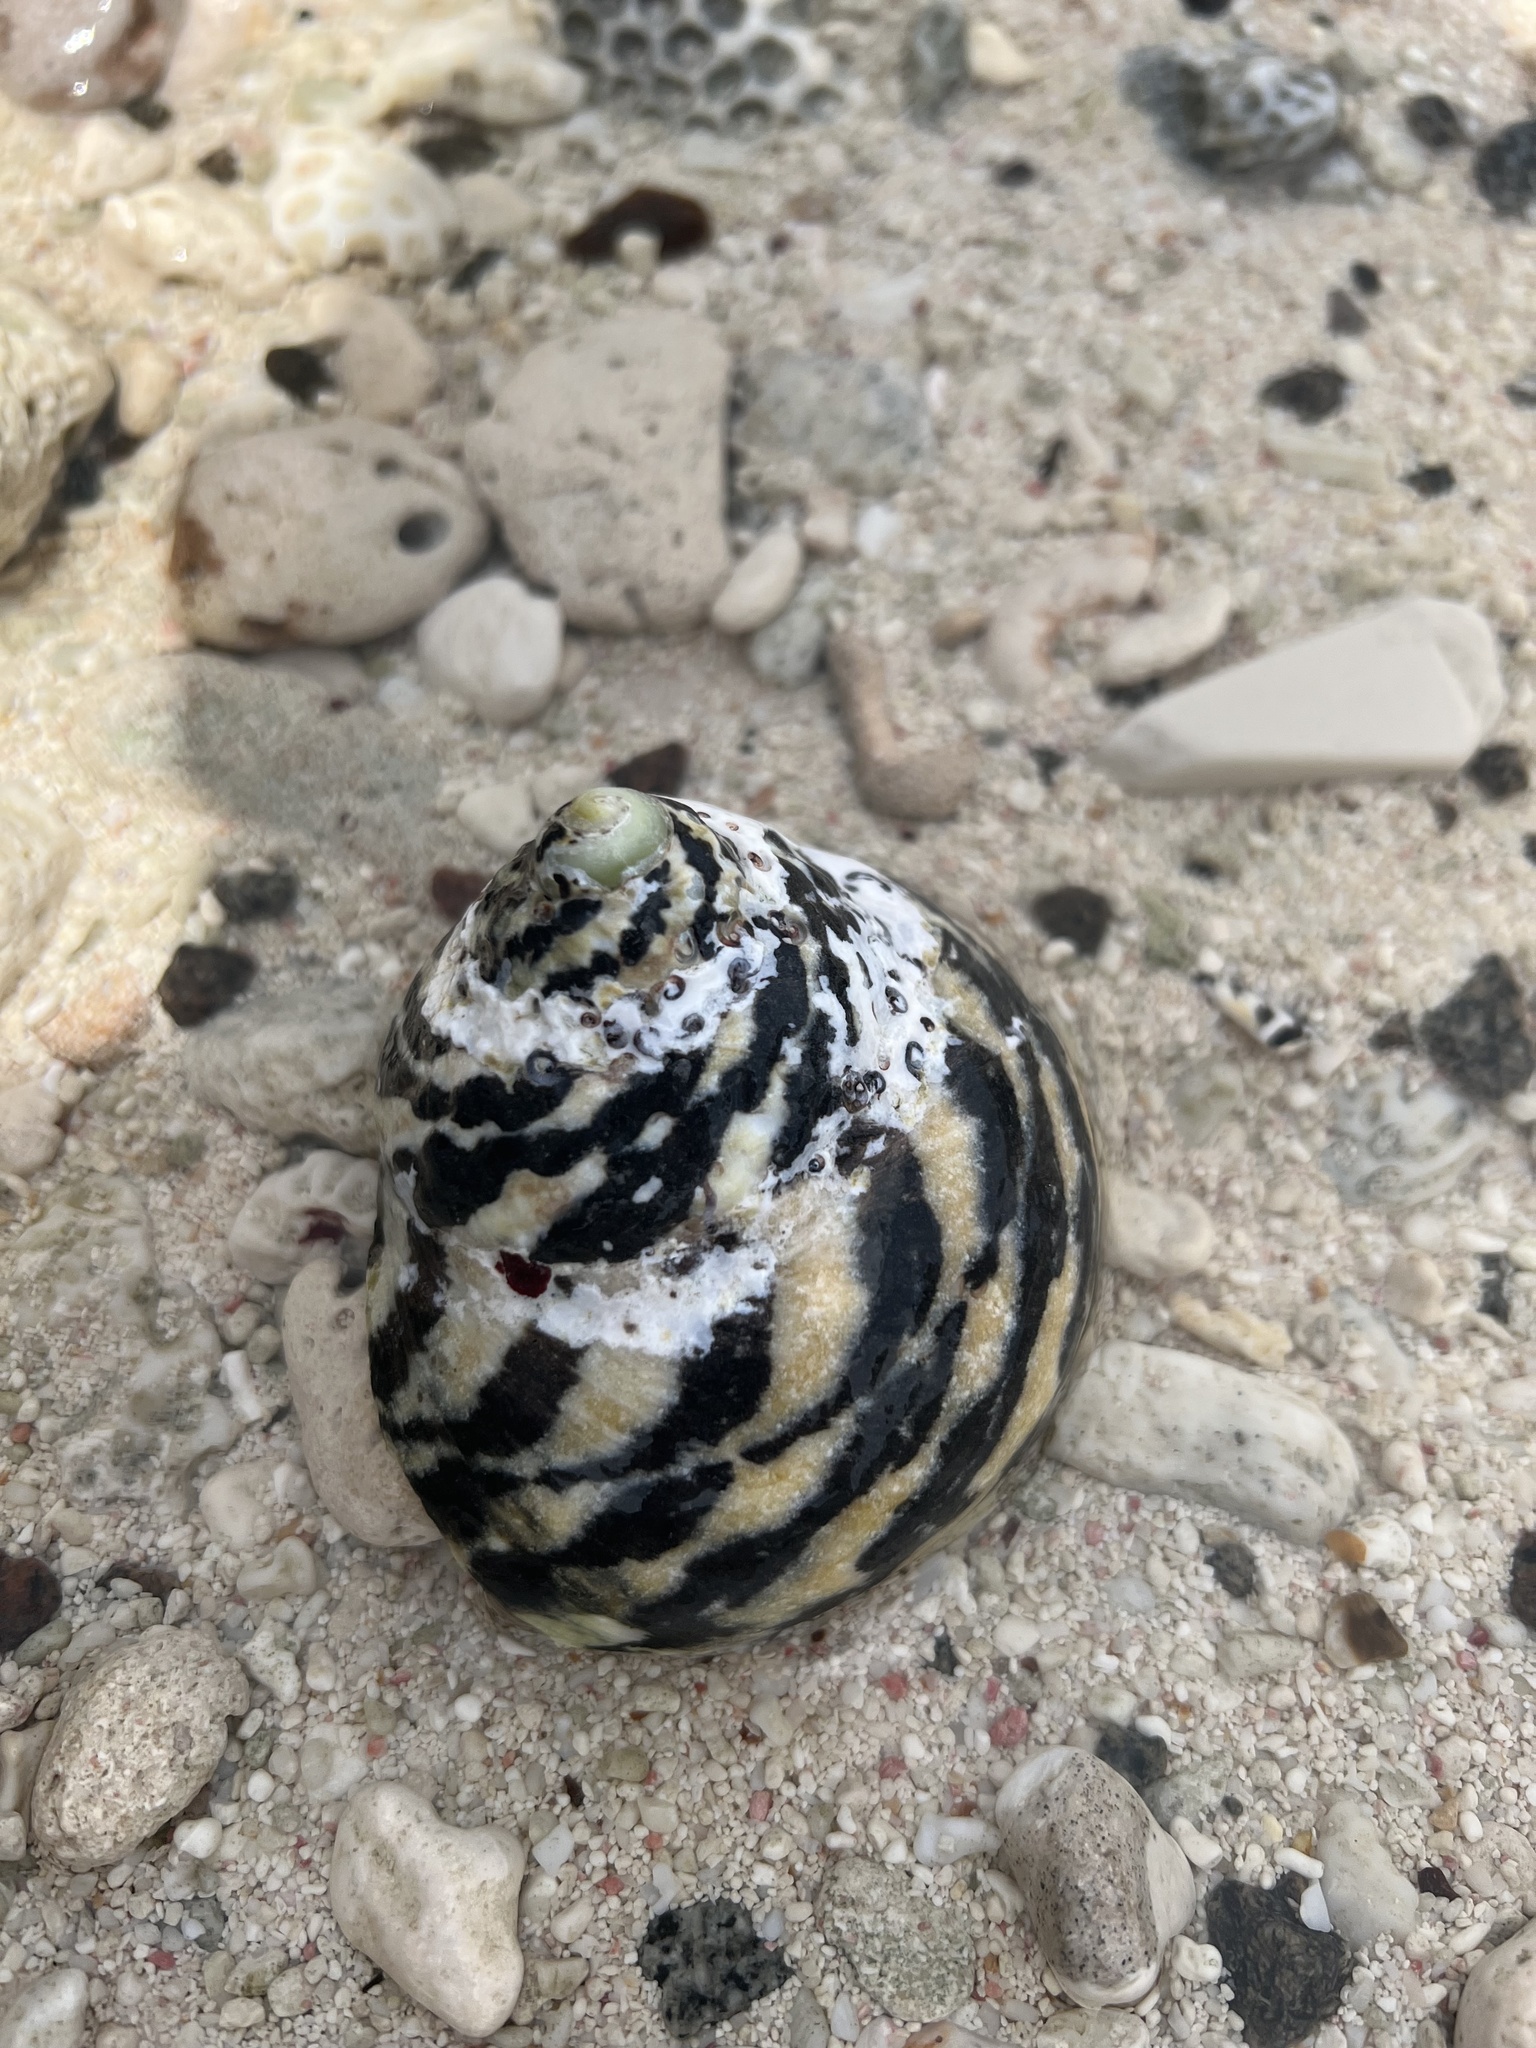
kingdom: Animalia
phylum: Mollusca
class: Gastropoda
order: Trochida
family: Tegulidae
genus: Cittarium
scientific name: Cittarium pica
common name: West indian topshell
